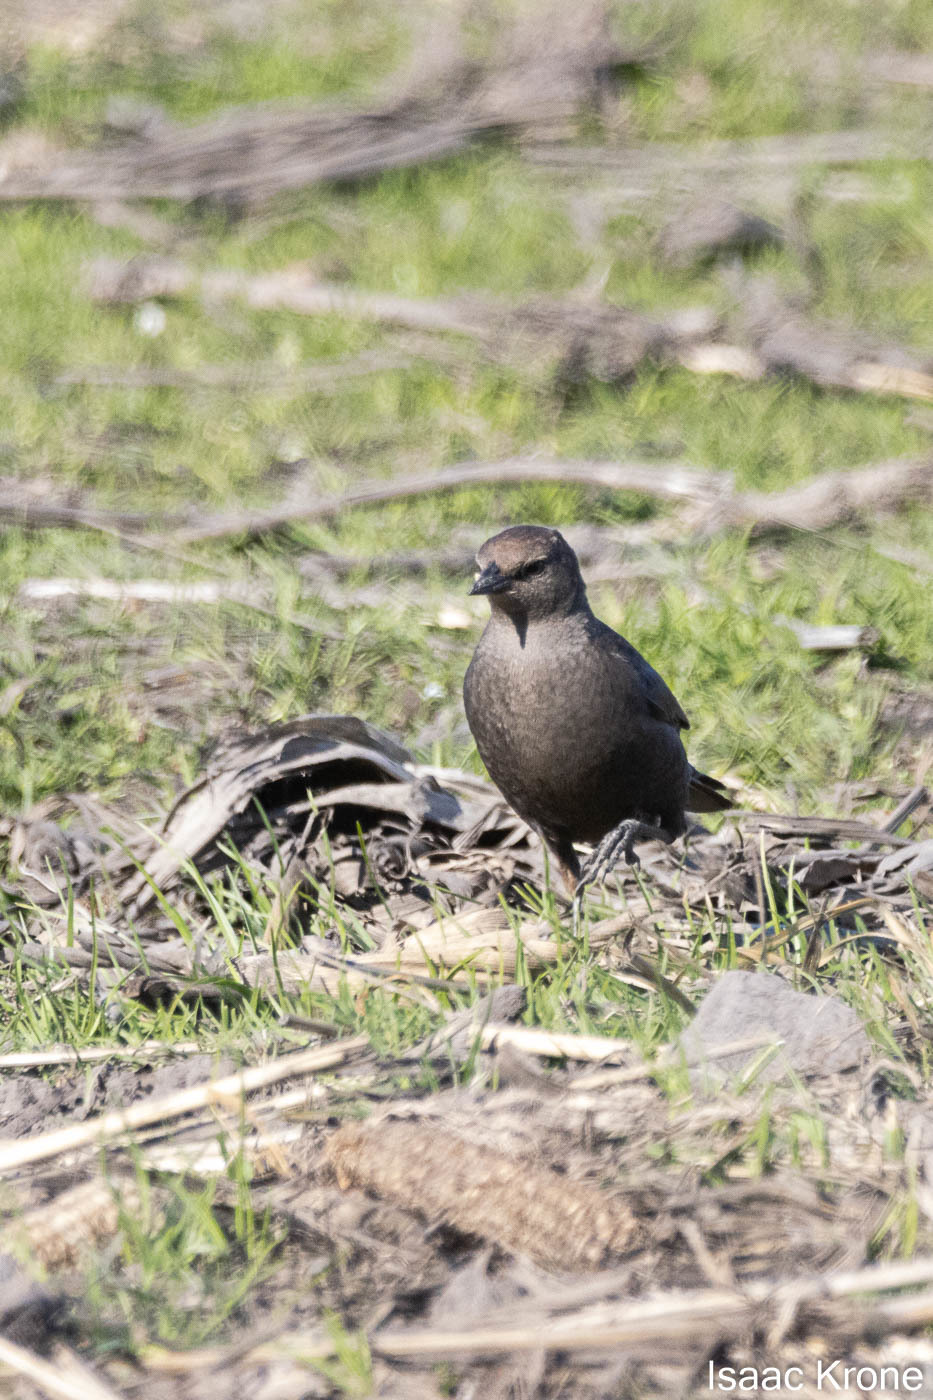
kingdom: Animalia
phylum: Chordata
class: Aves
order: Passeriformes
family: Icteridae
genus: Euphagus
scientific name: Euphagus cyanocephalus
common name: Brewer's blackbird
